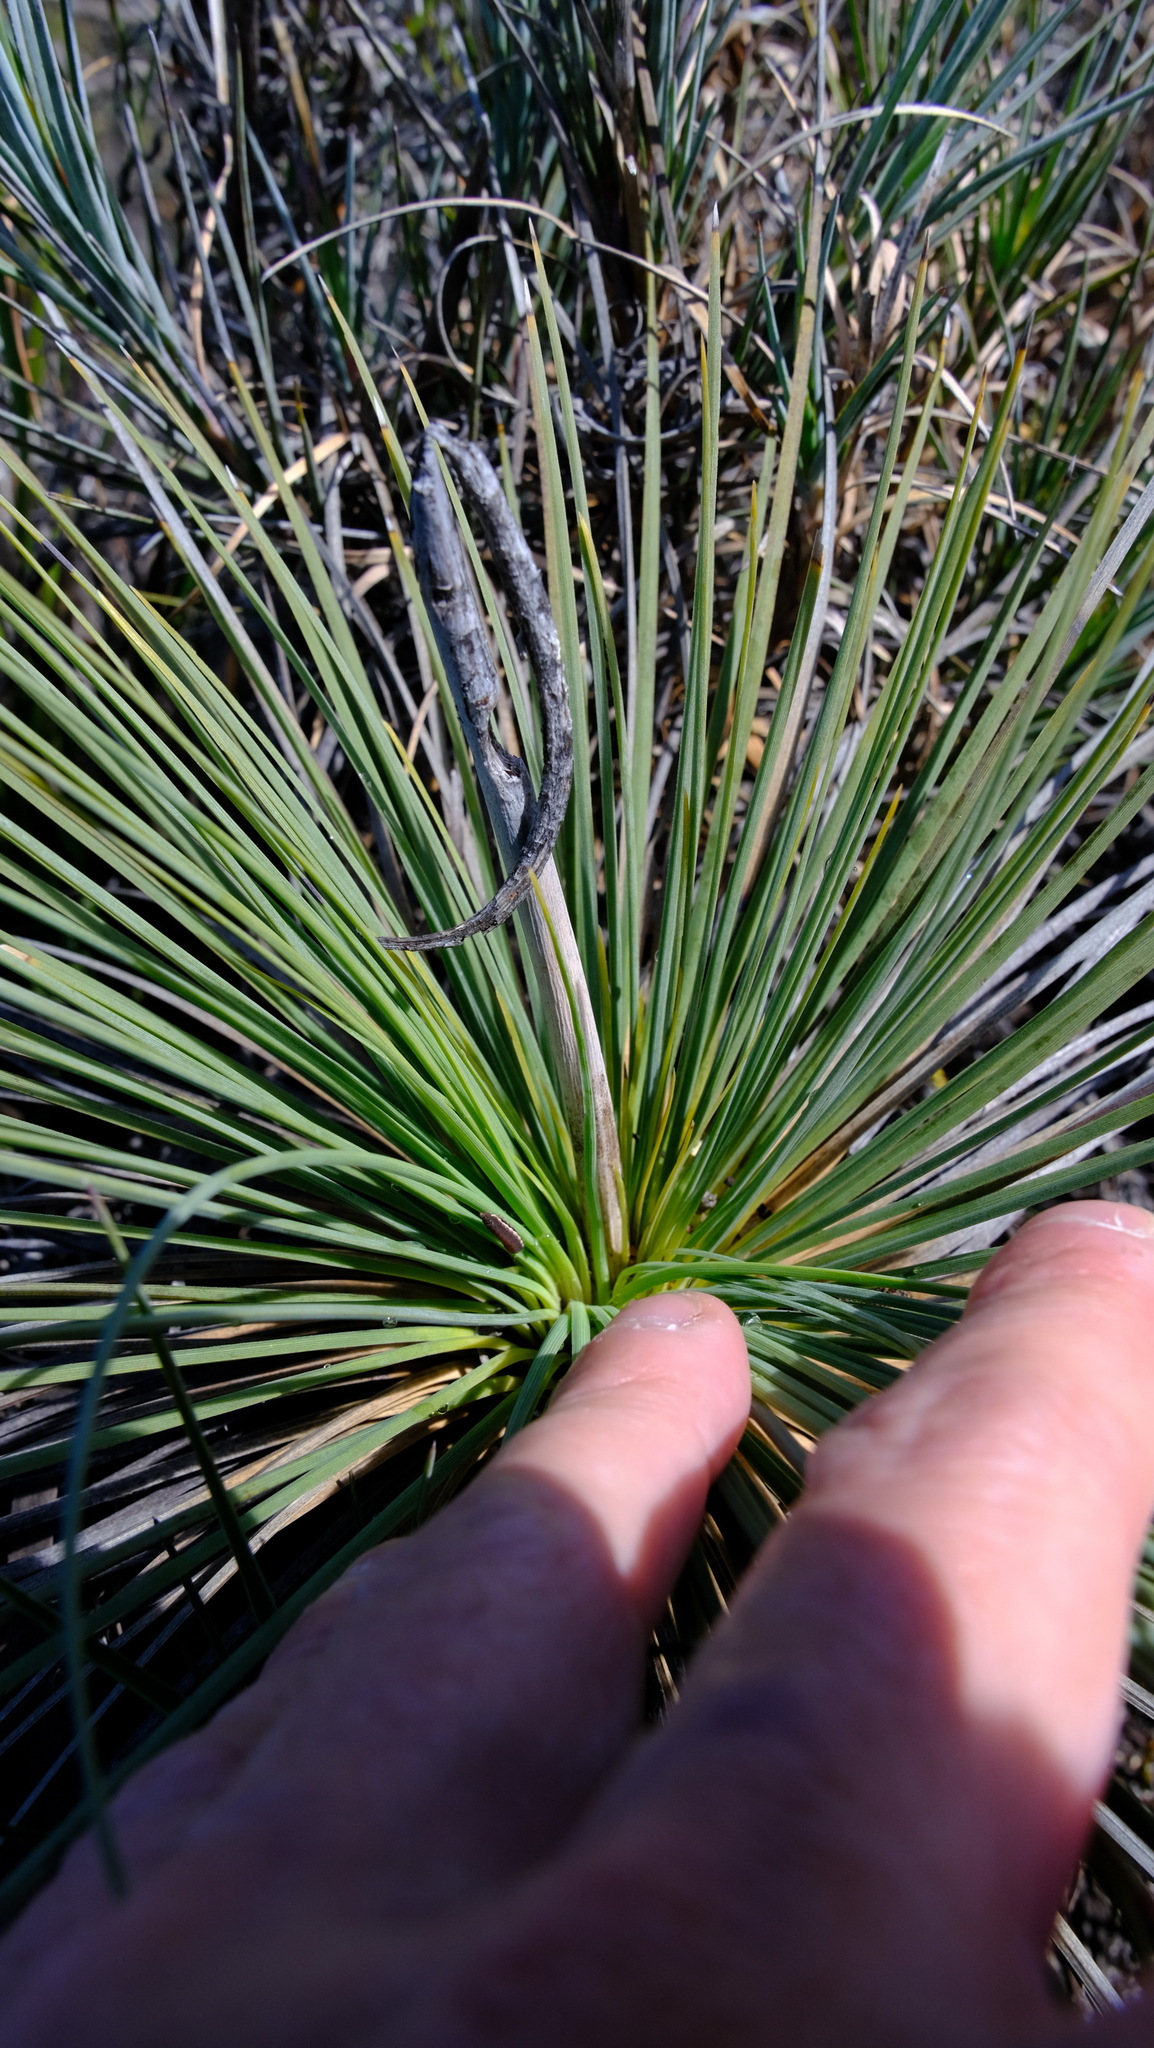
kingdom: Plantae
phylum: Tracheophyta
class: Liliopsida
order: Asparagales
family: Asphodelaceae
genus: Xanthorrhoea
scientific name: Xanthorrhoea drummondii
